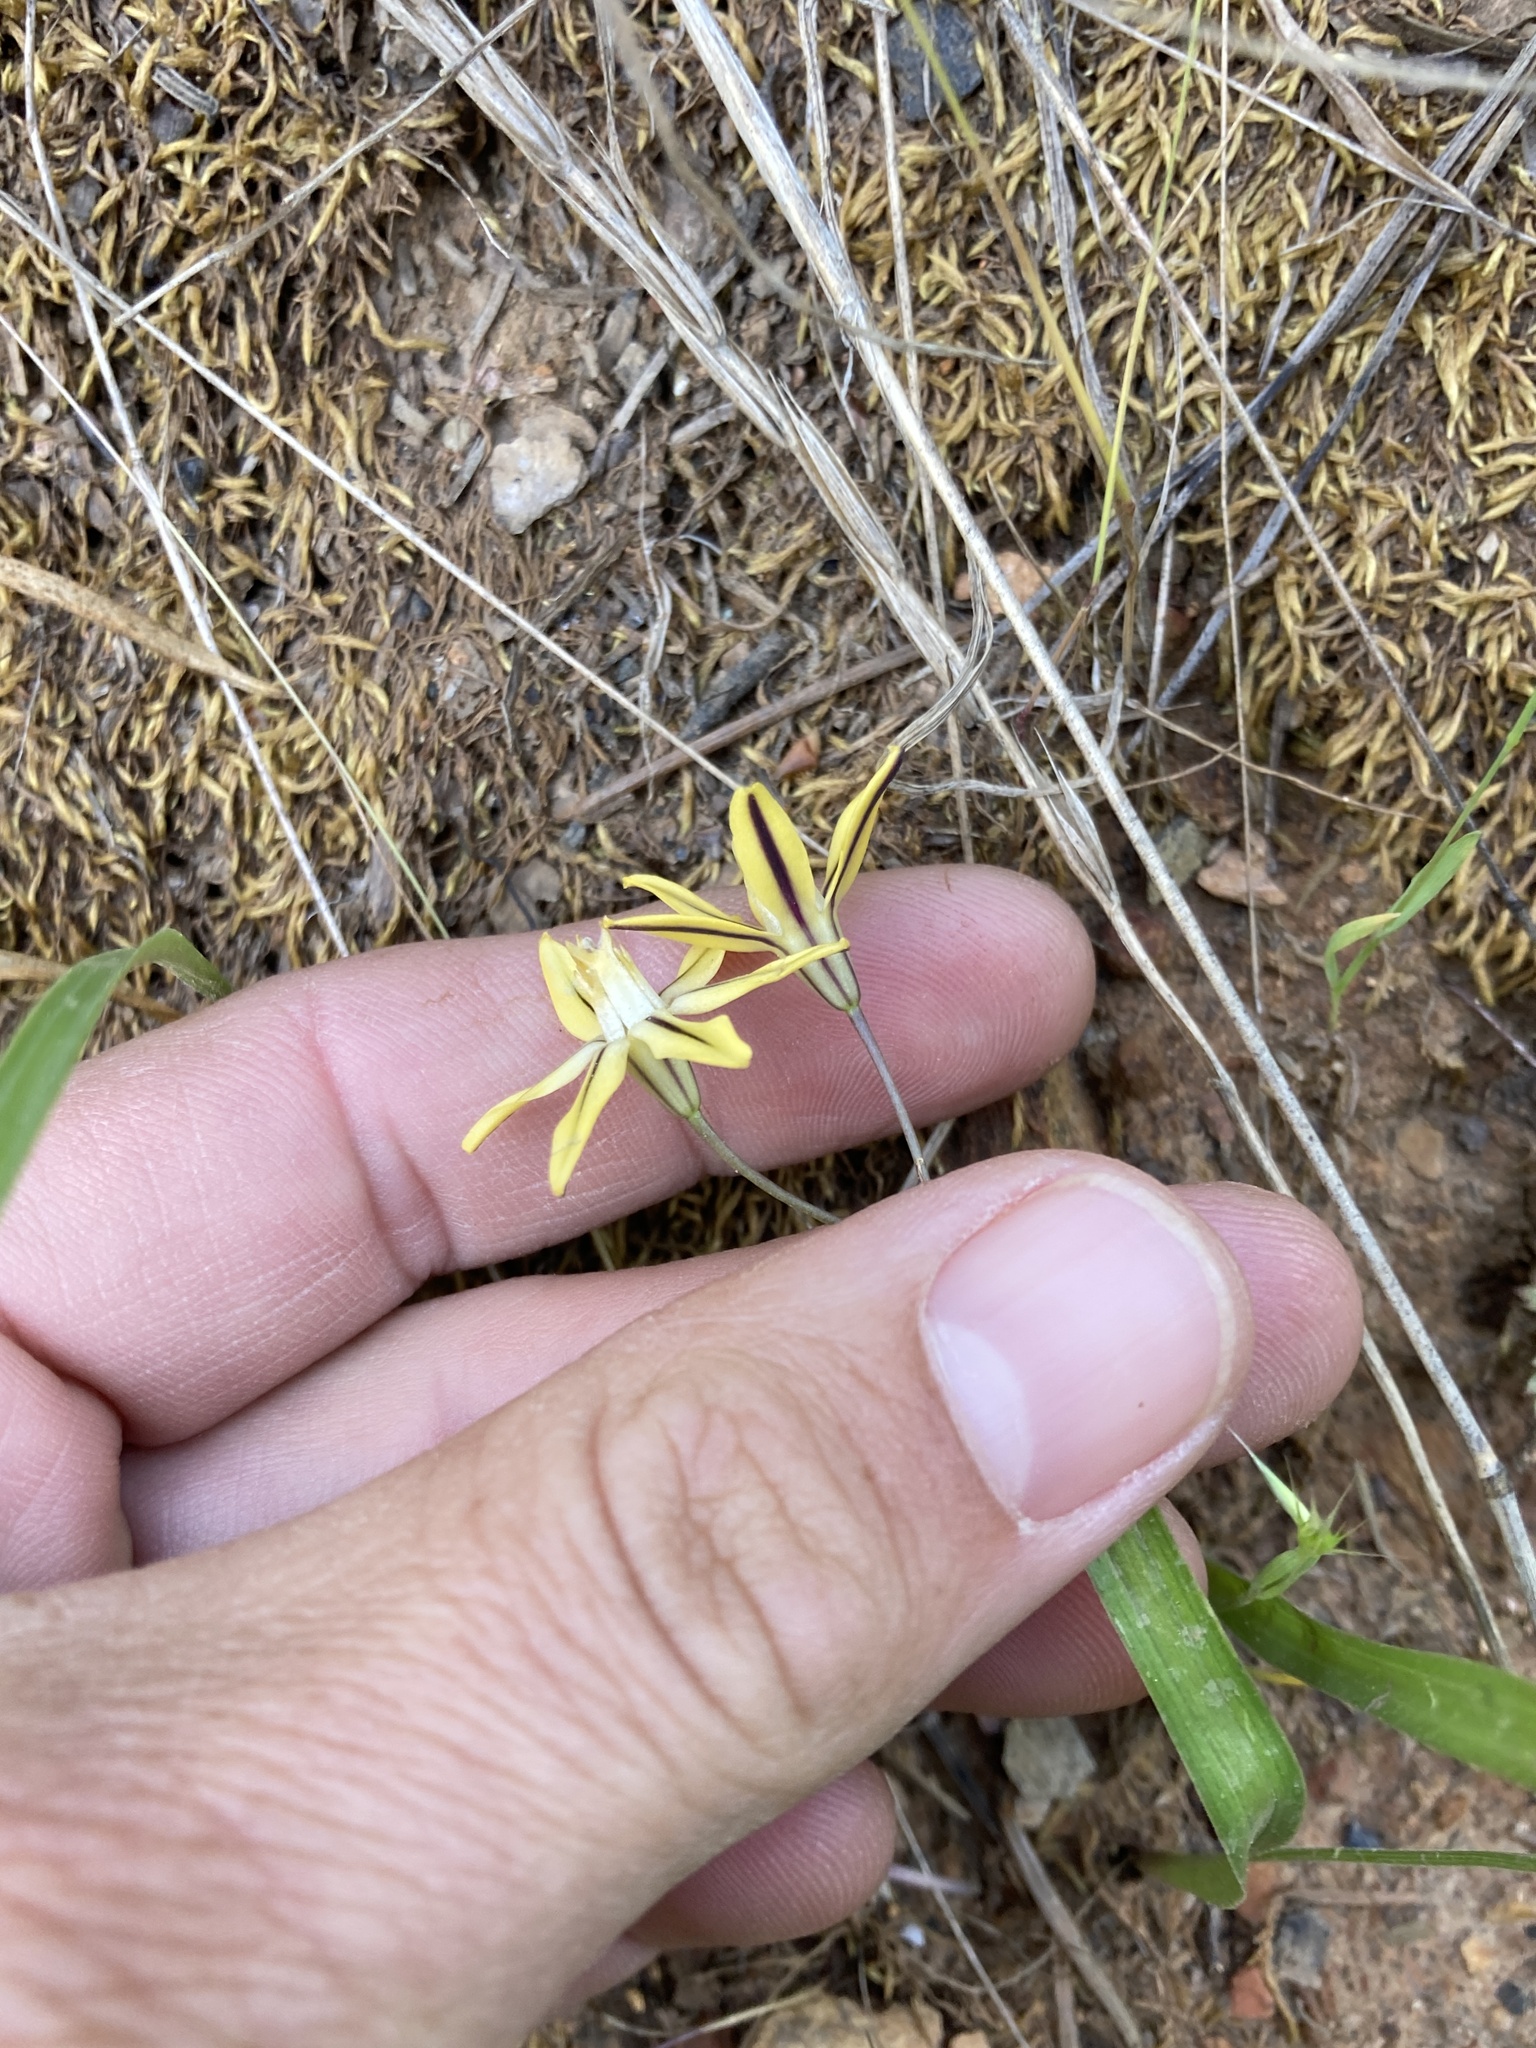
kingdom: Plantae
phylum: Tracheophyta
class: Liliopsida
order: Asparagales
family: Asparagaceae
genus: Triteleia
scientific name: Triteleia ixioides
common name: Yellow-brodiaea
